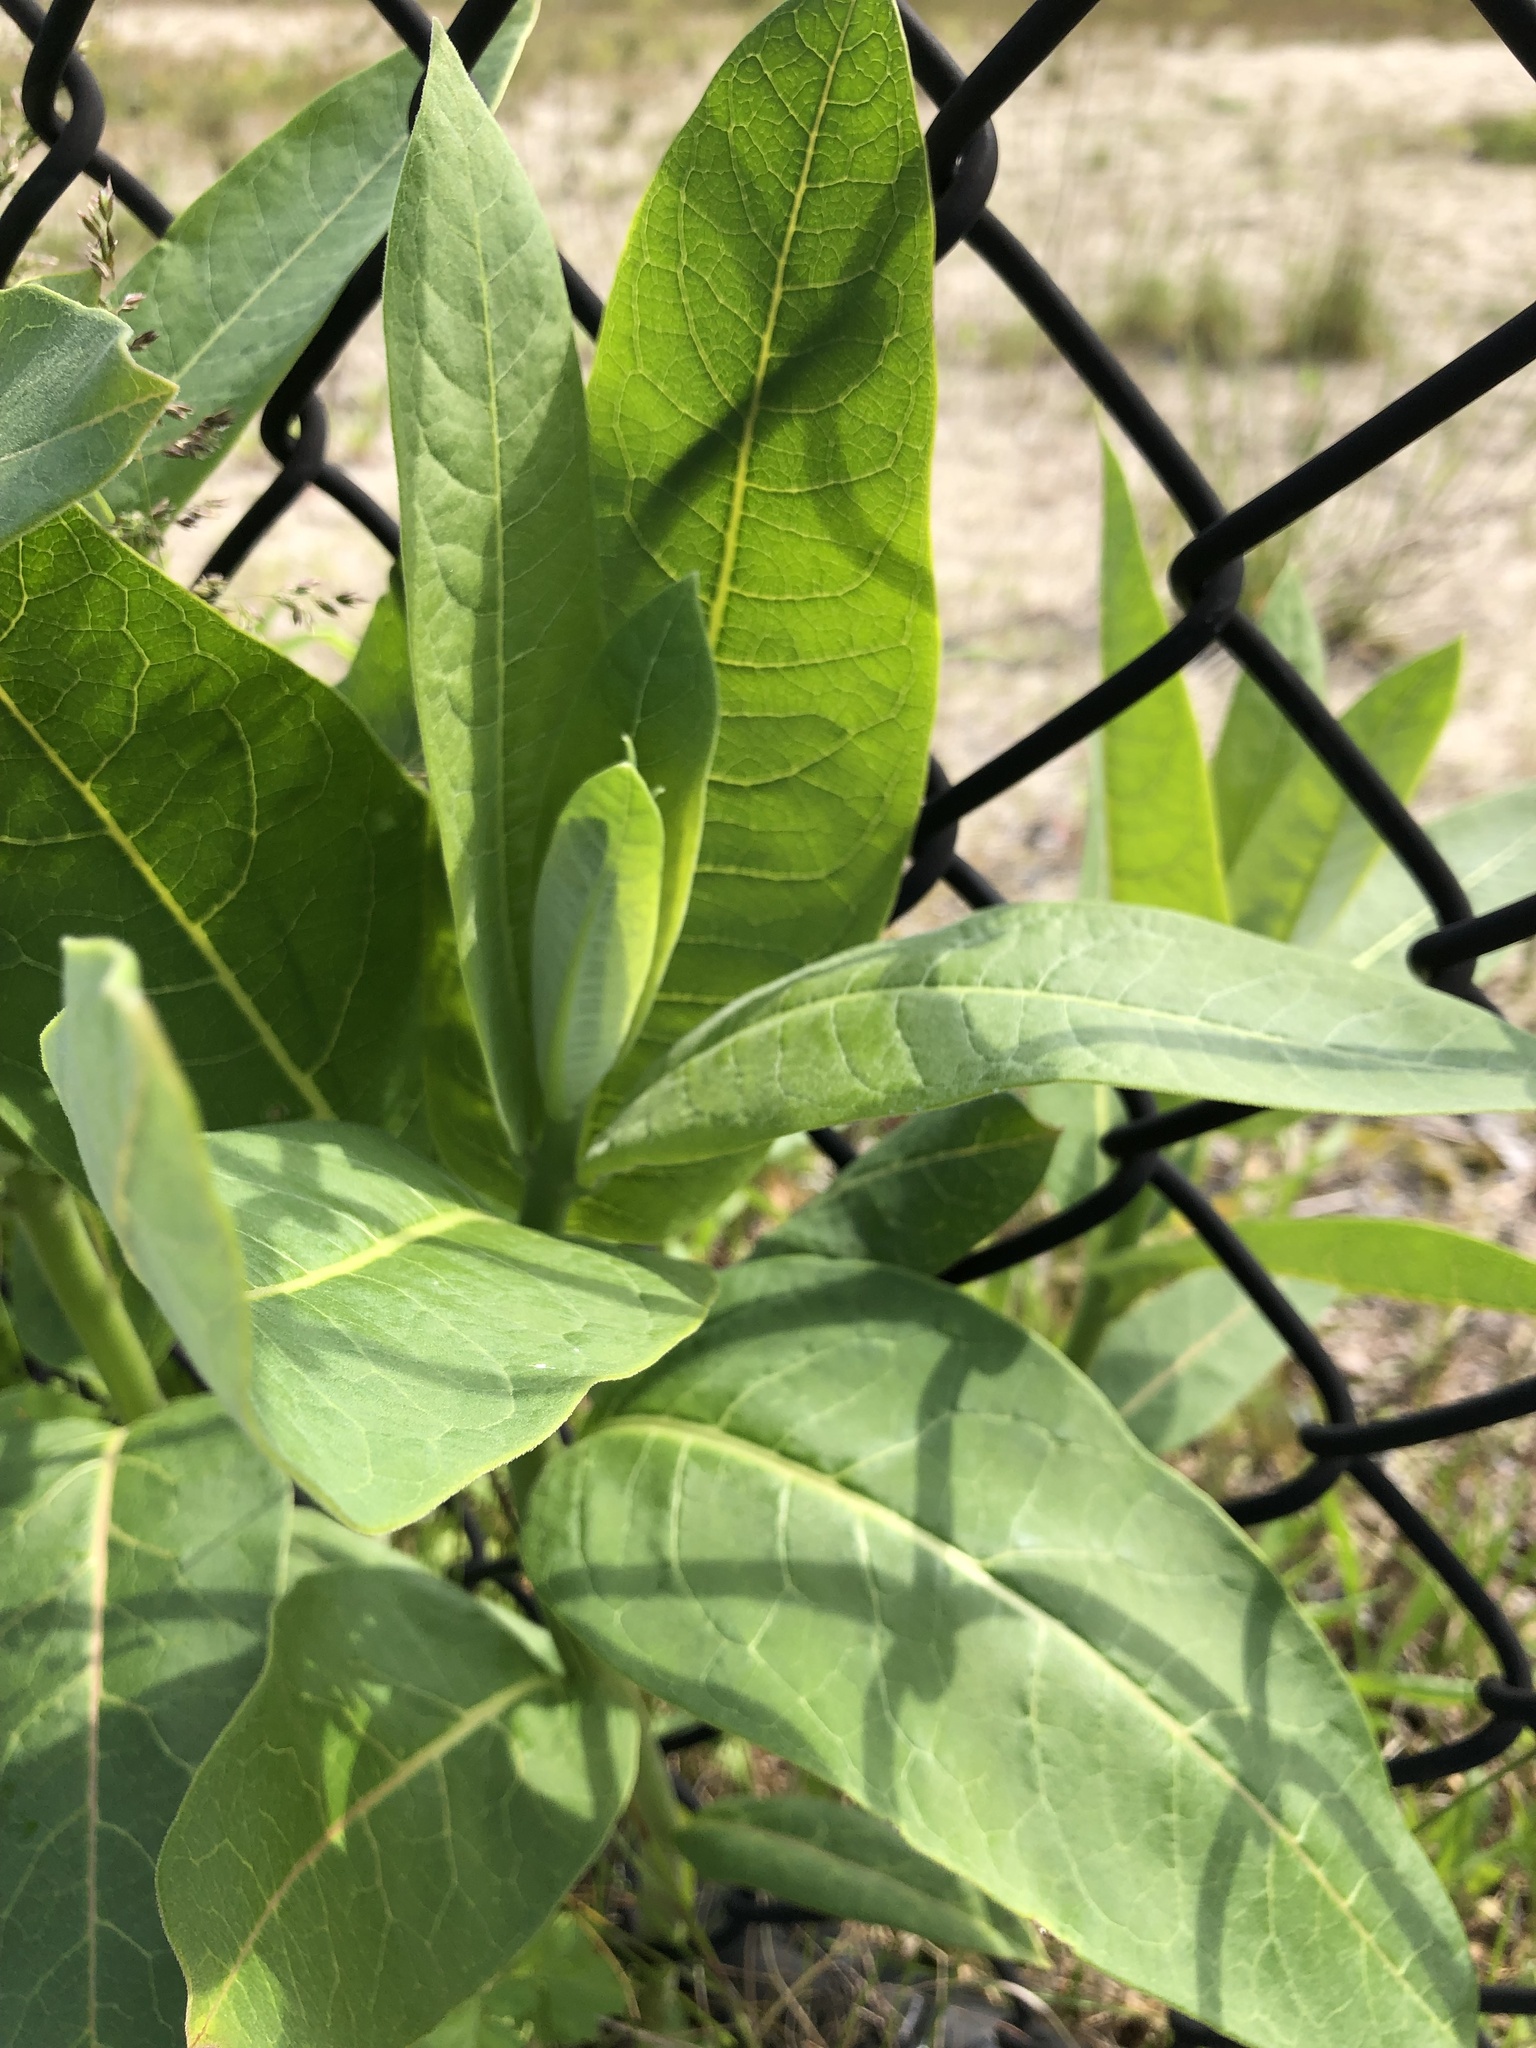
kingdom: Plantae
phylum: Tracheophyta
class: Magnoliopsida
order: Gentianales
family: Apocynaceae
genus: Asclepias
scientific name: Asclepias syriaca
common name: Common milkweed
